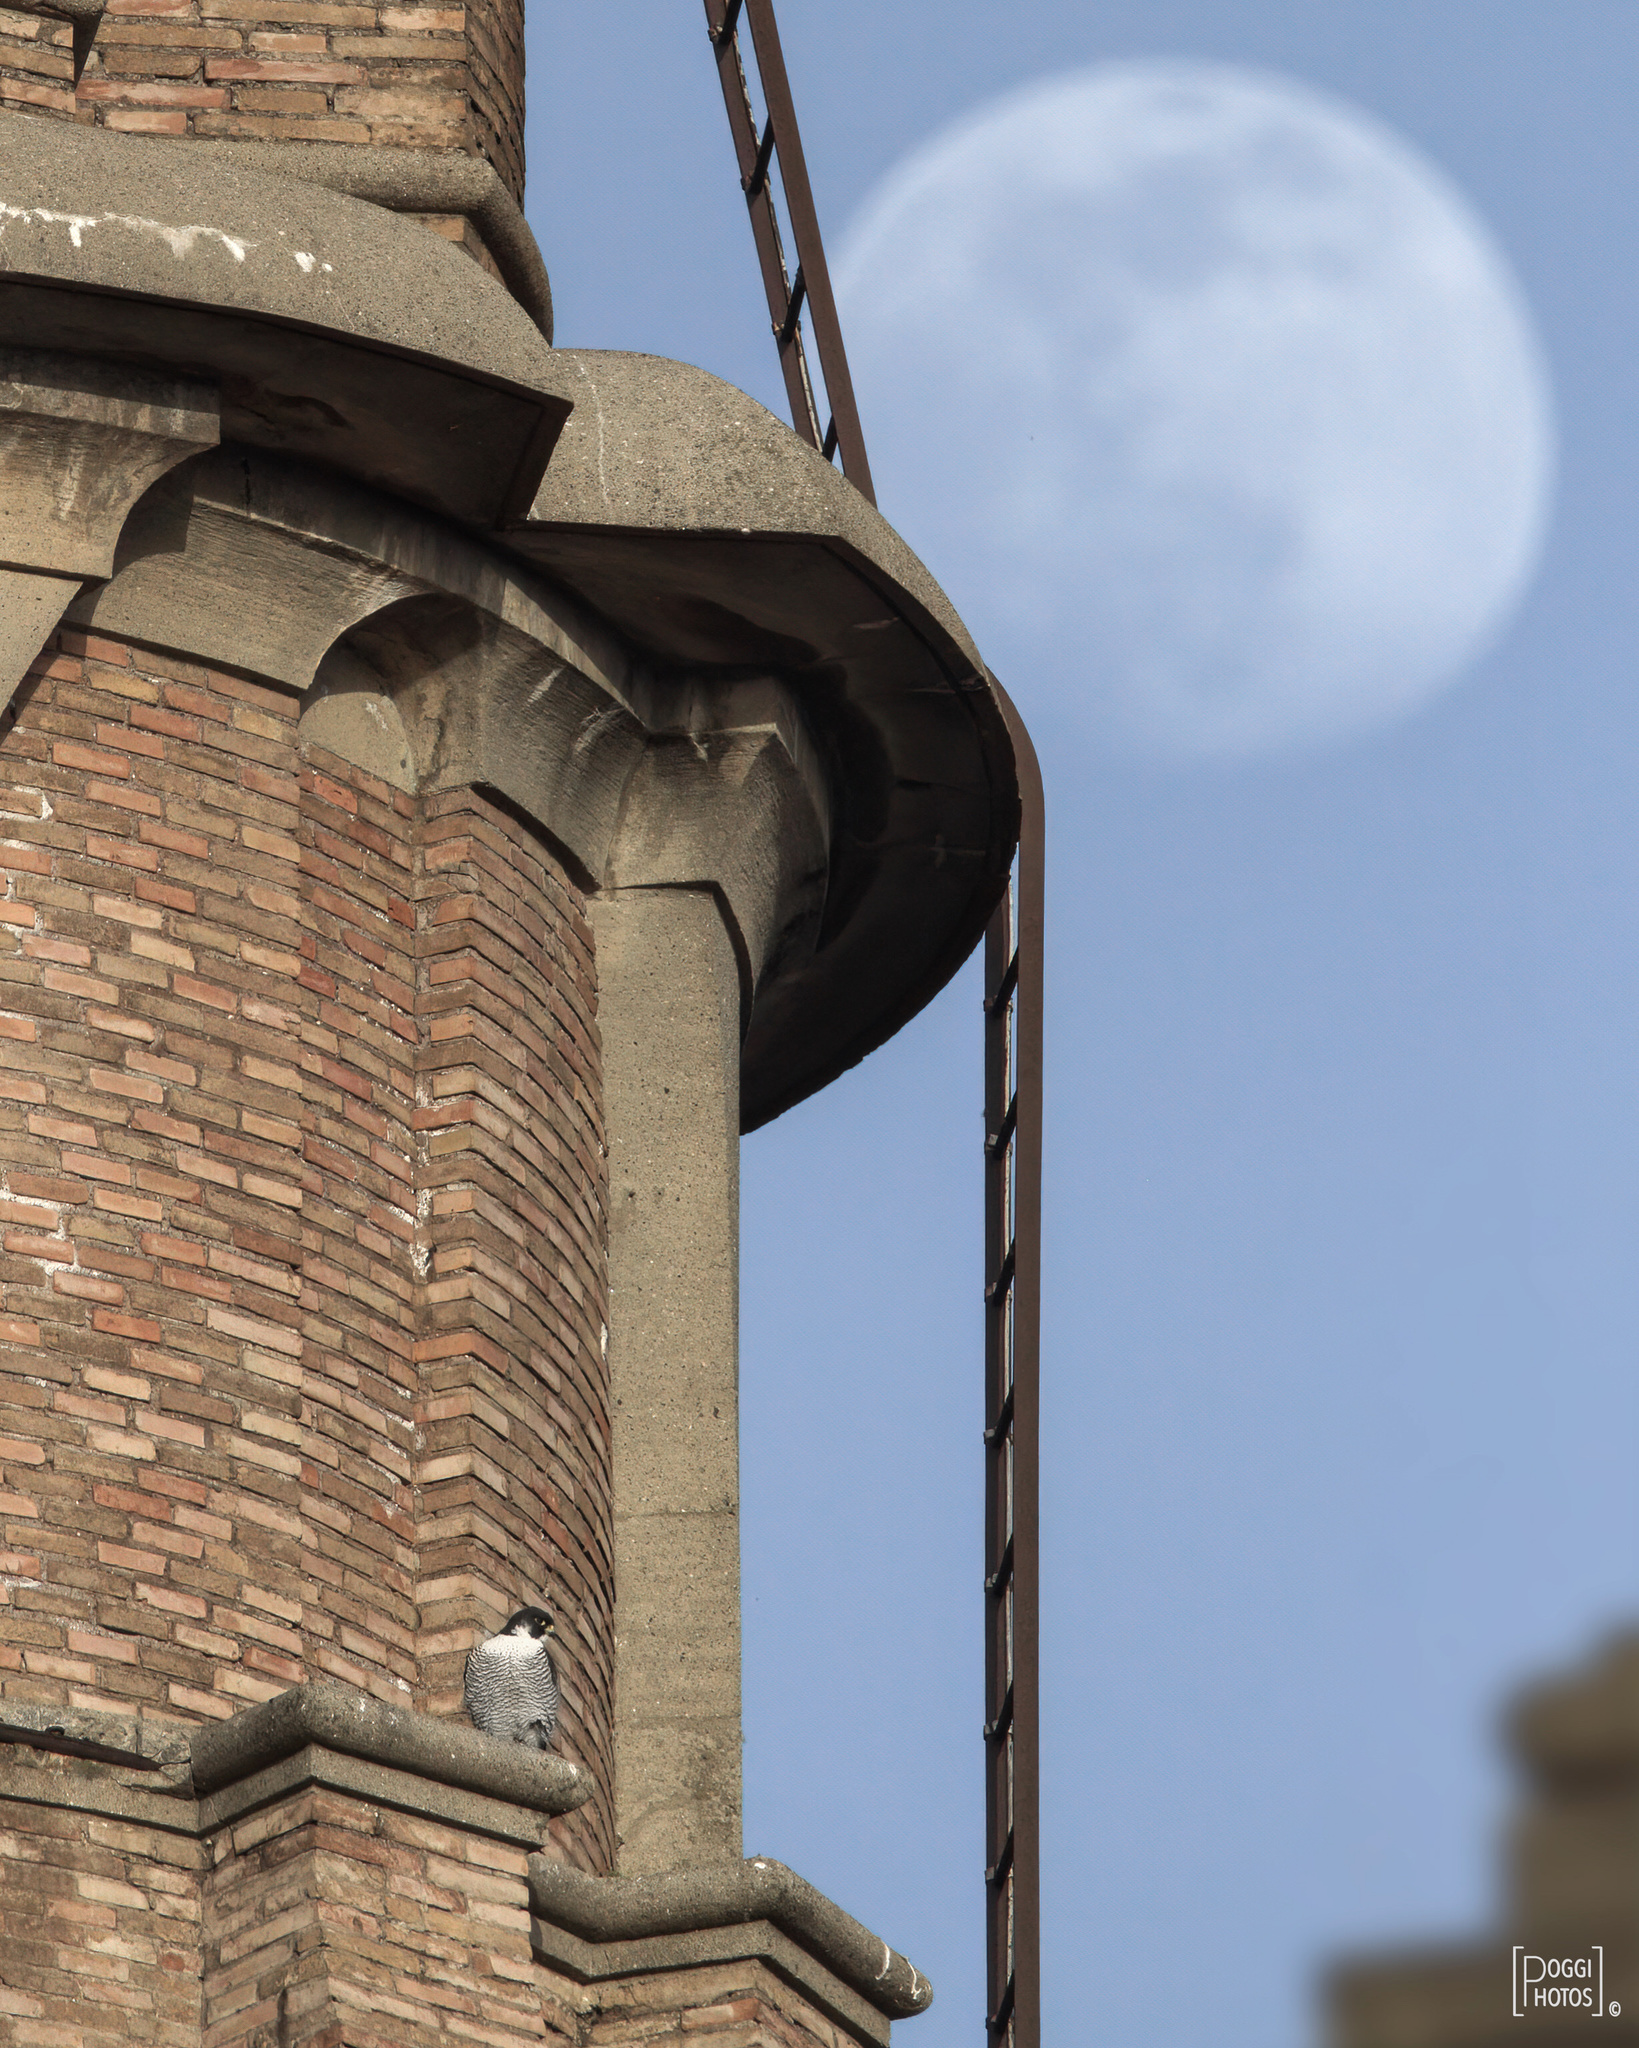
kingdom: Animalia
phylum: Chordata
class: Aves
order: Falconiformes
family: Falconidae
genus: Falco
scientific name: Falco peregrinus
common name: Peregrine falcon
